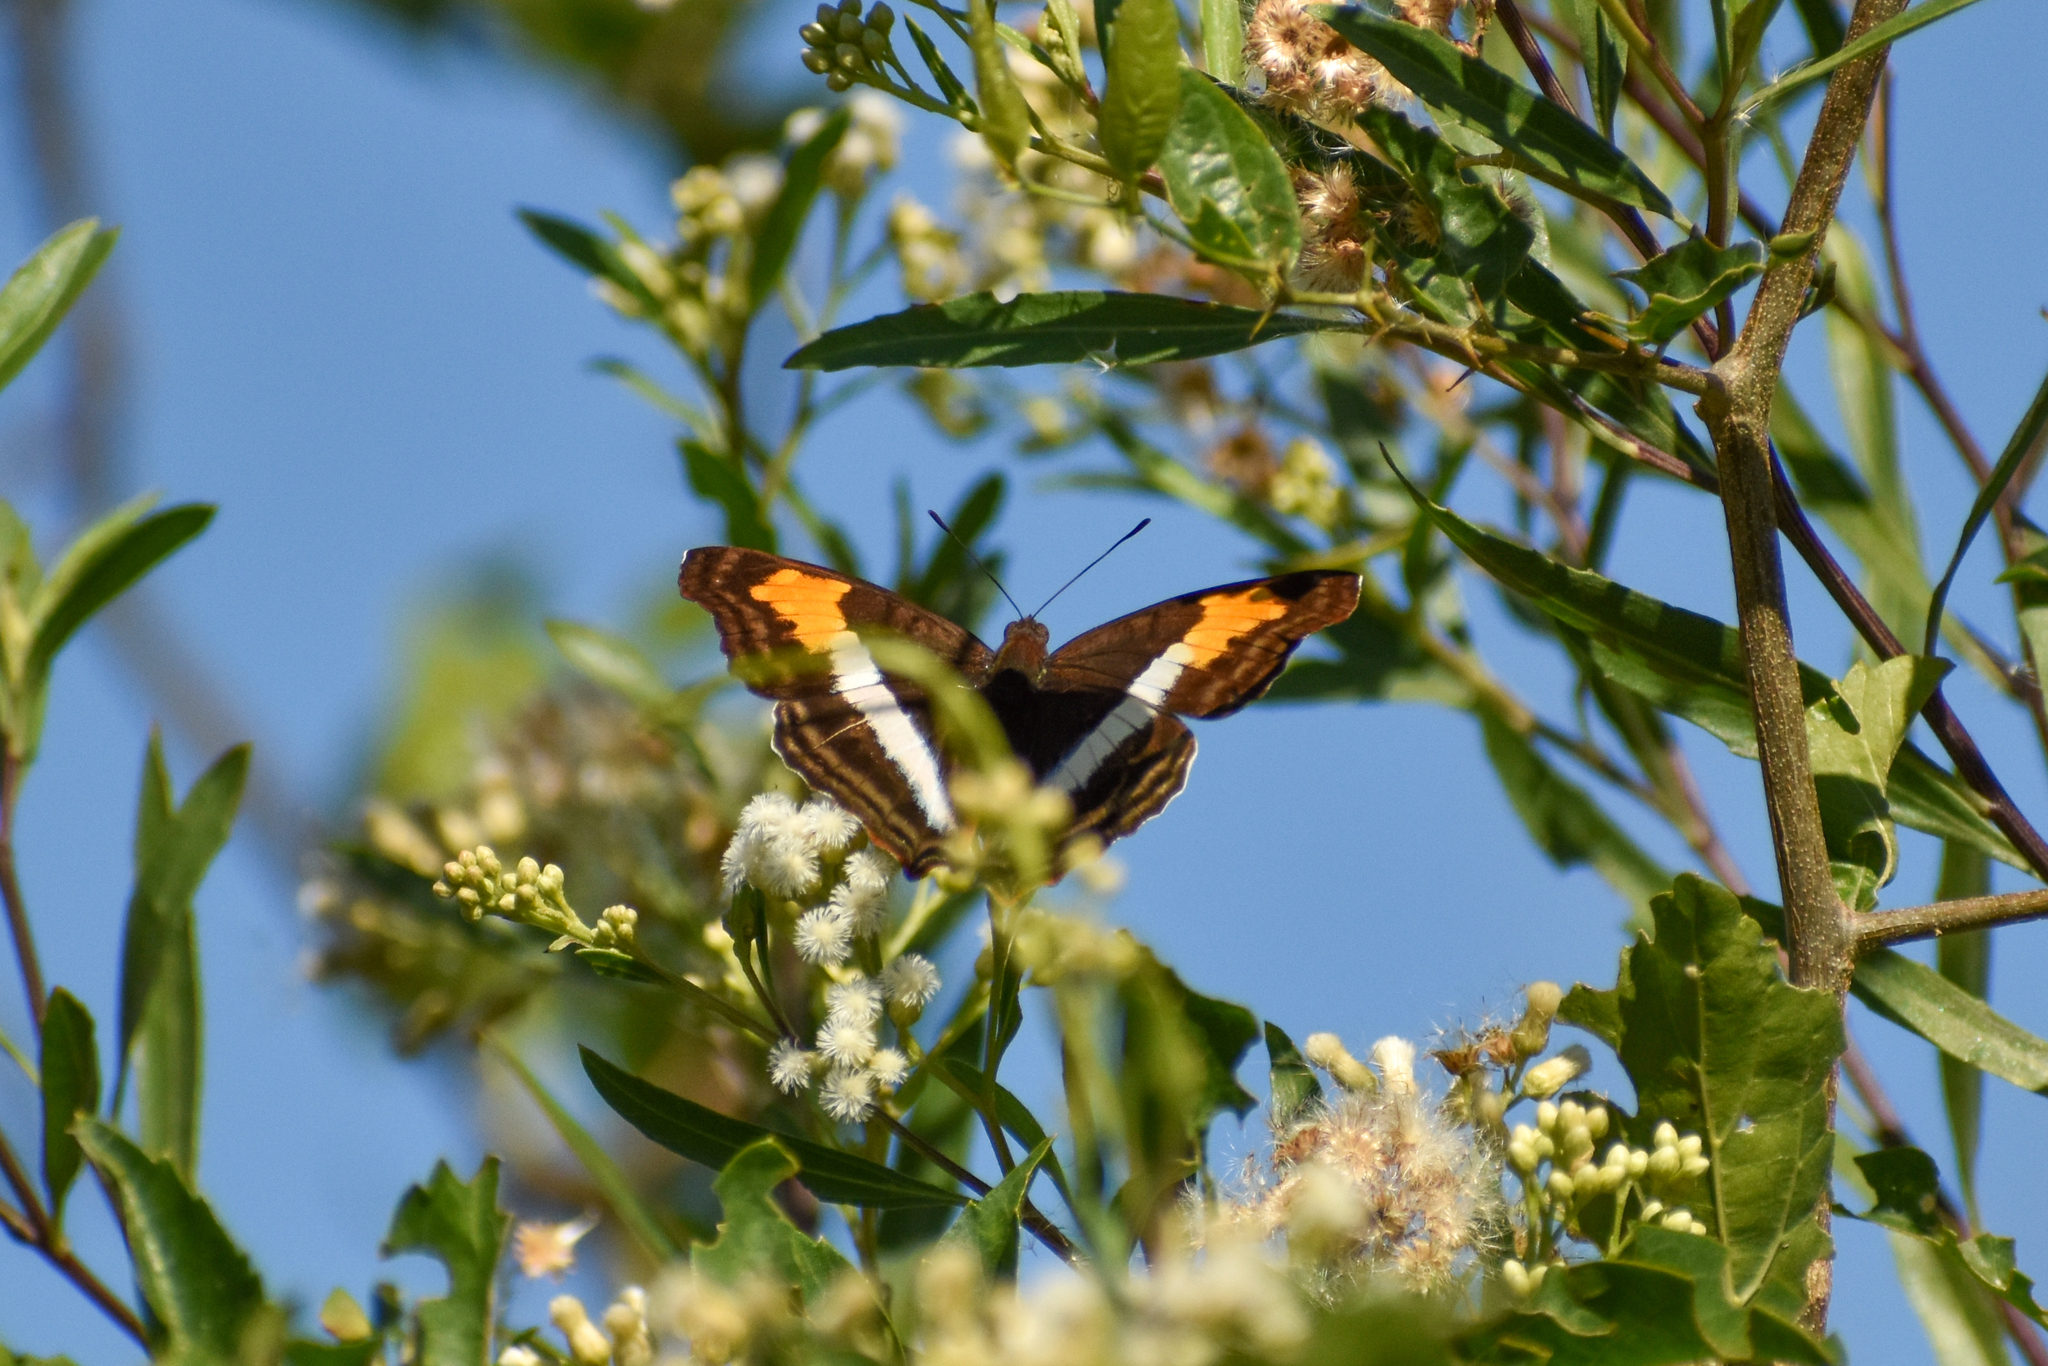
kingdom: Animalia
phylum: Arthropoda
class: Insecta
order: Lepidoptera
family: Nymphalidae
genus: Doxocopa
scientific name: Doxocopa laurentia
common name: Turquoise emperor
